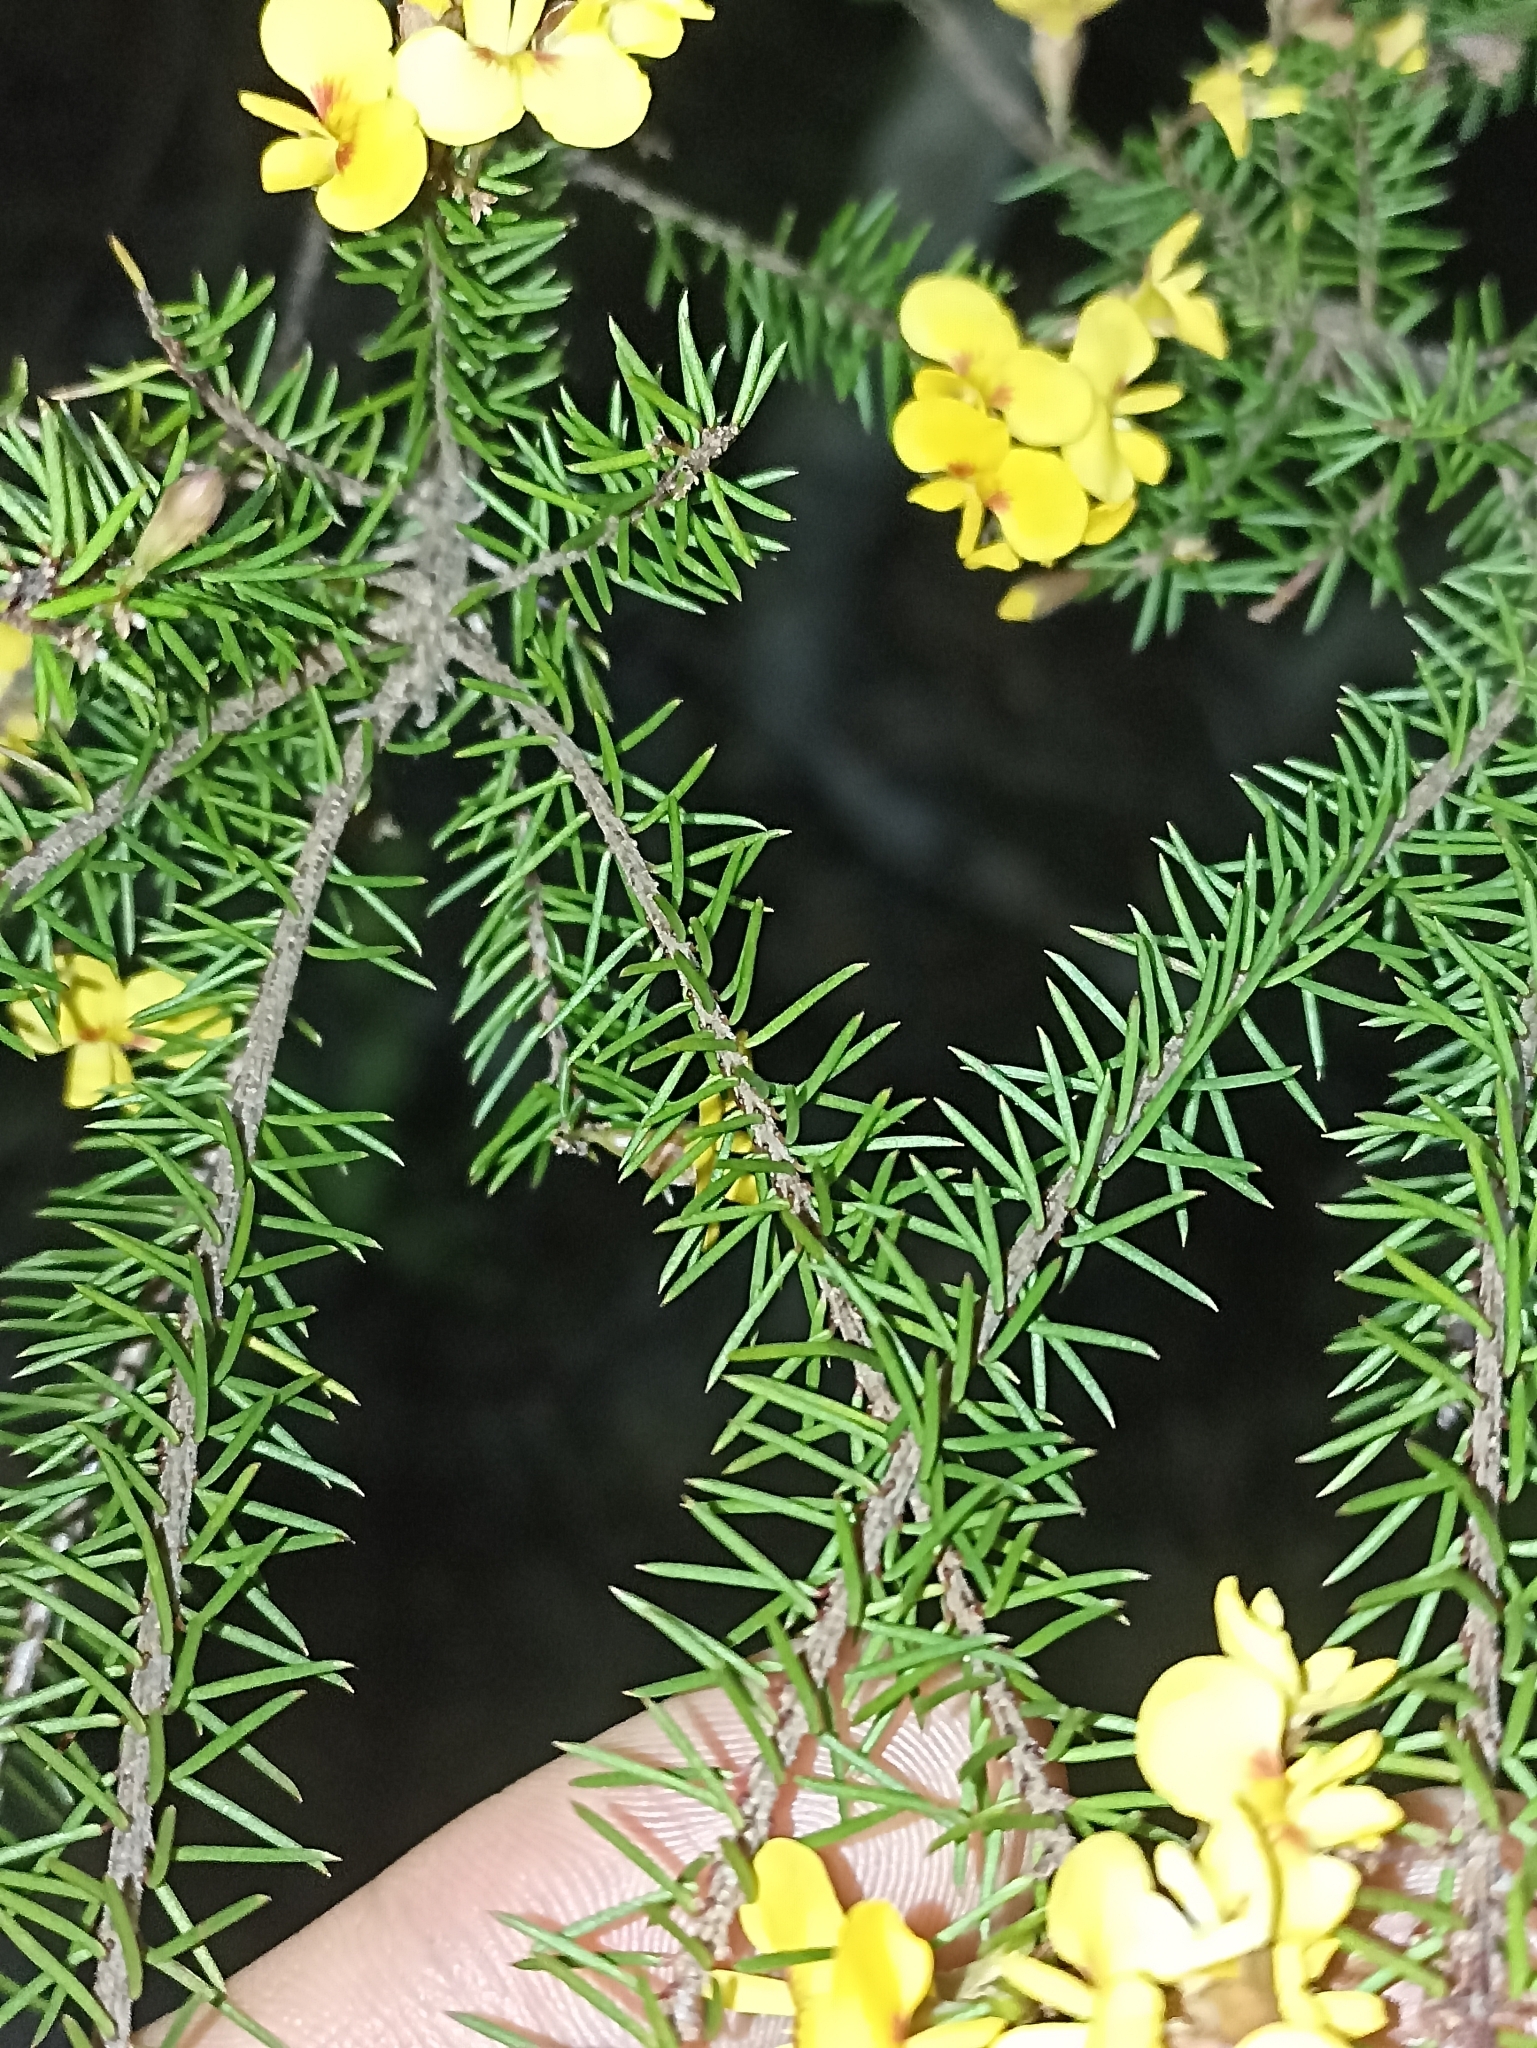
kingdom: Plantae
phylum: Tracheophyta
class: Magnoliopsida
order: Fabales
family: Fabaceae
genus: Dillwynia
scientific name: Dillwynia retorta
